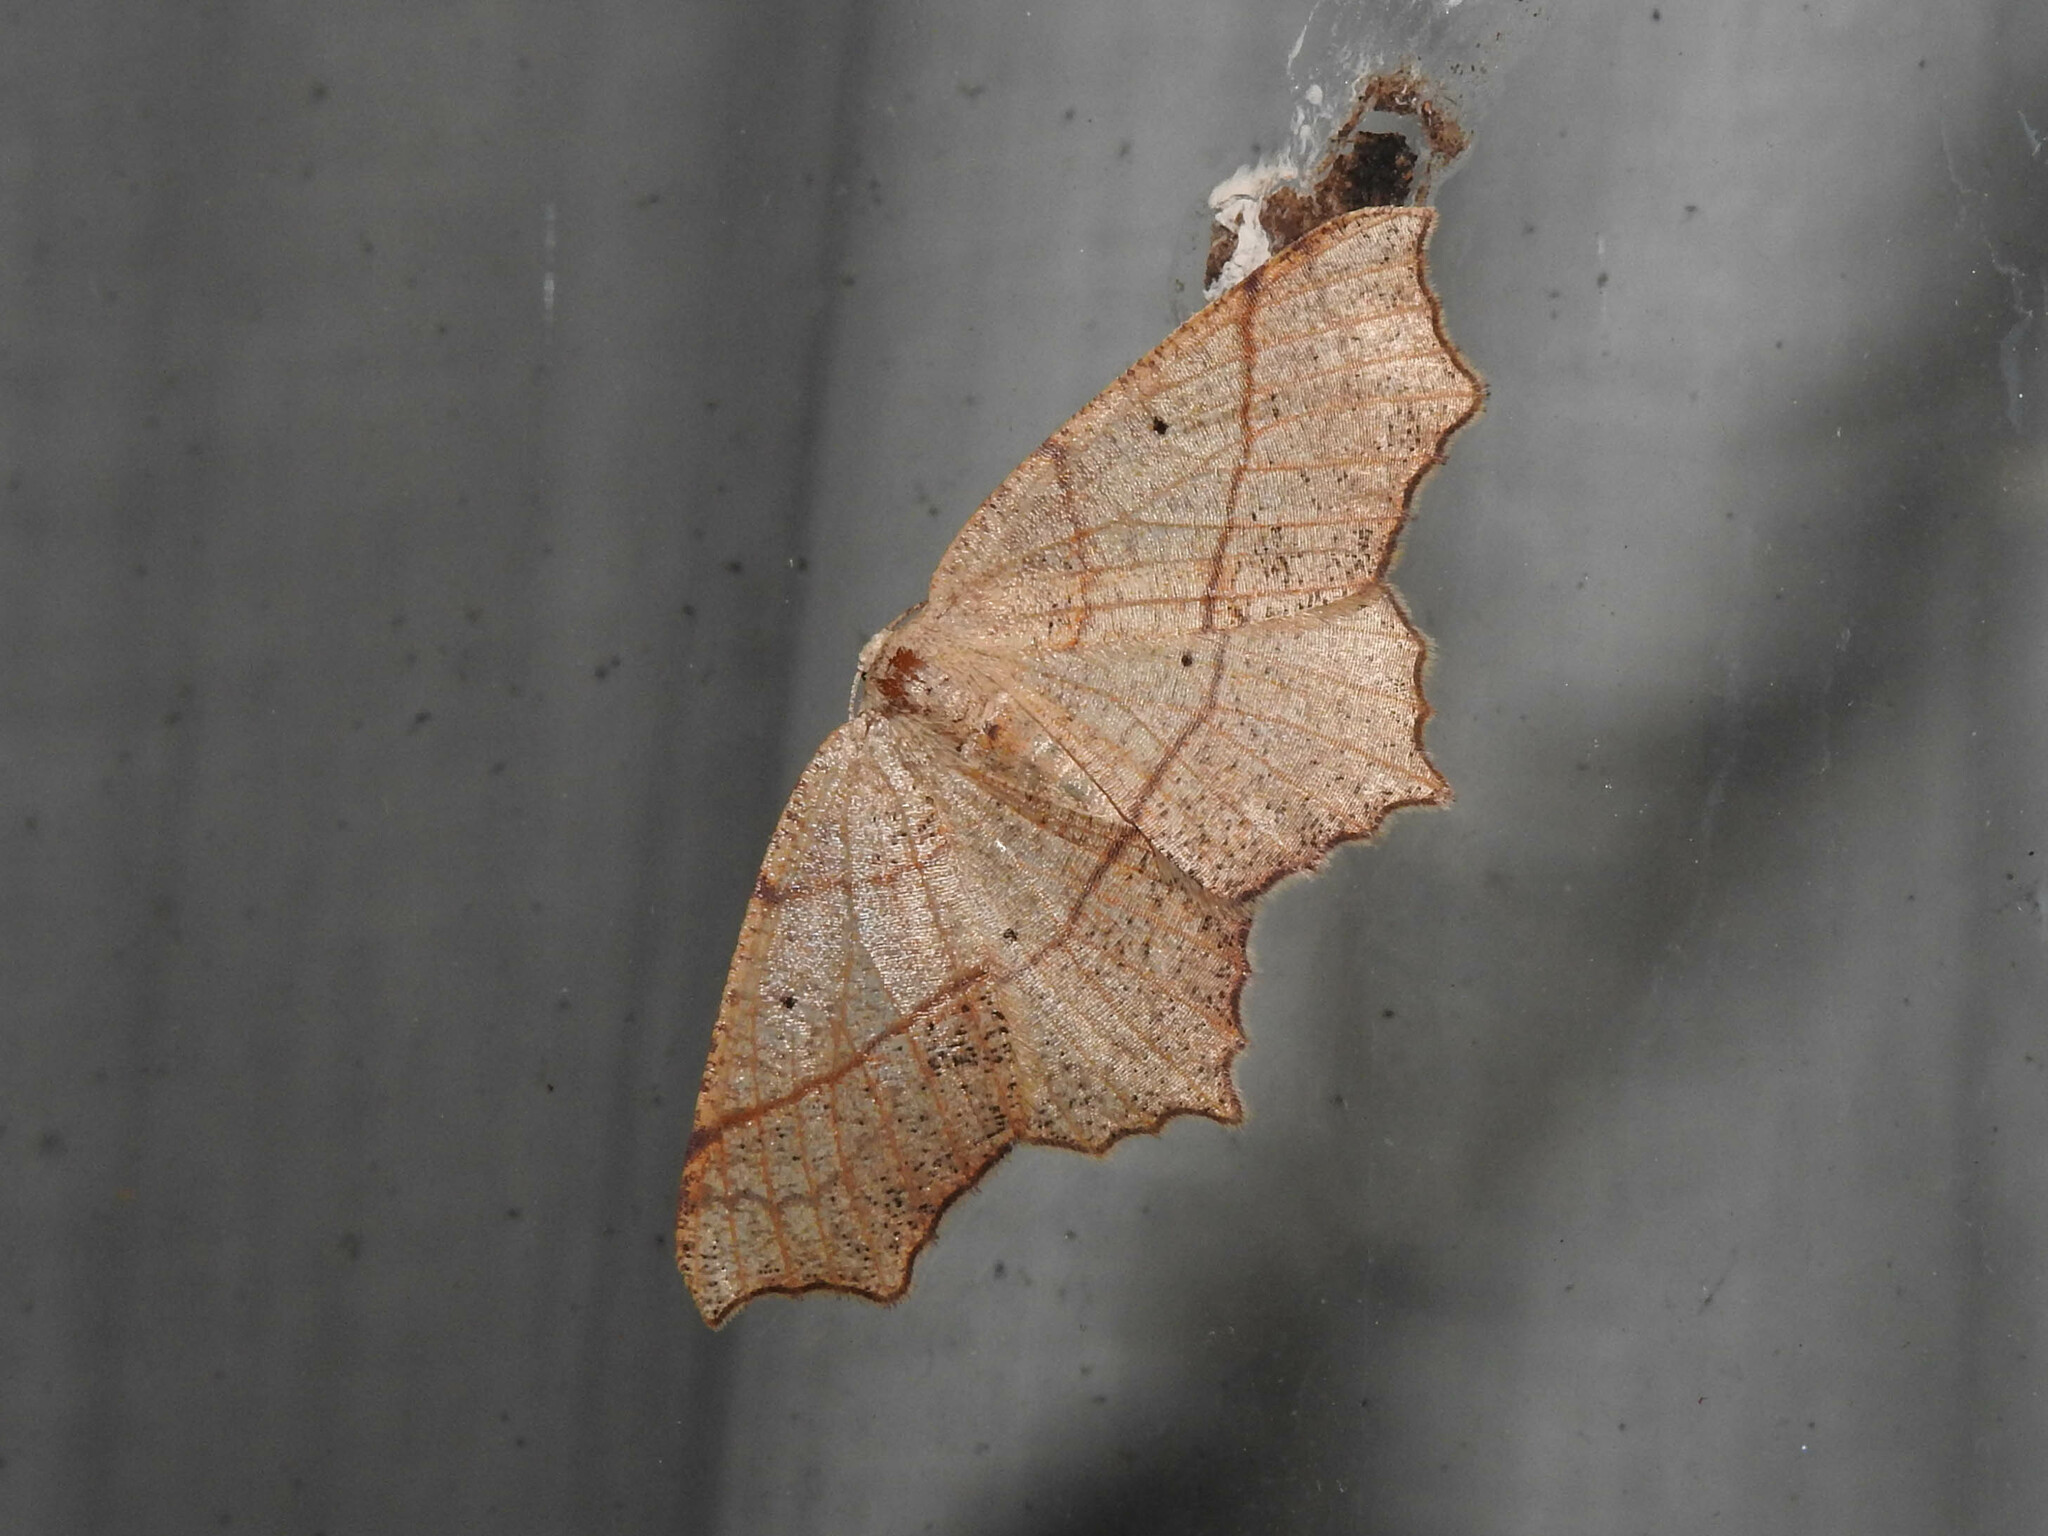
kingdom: Animalia
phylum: Arthropoda
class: Insecta
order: Lepidoptera
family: Geometridae
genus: Besma
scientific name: Besma quercivoraria
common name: Oak besma
